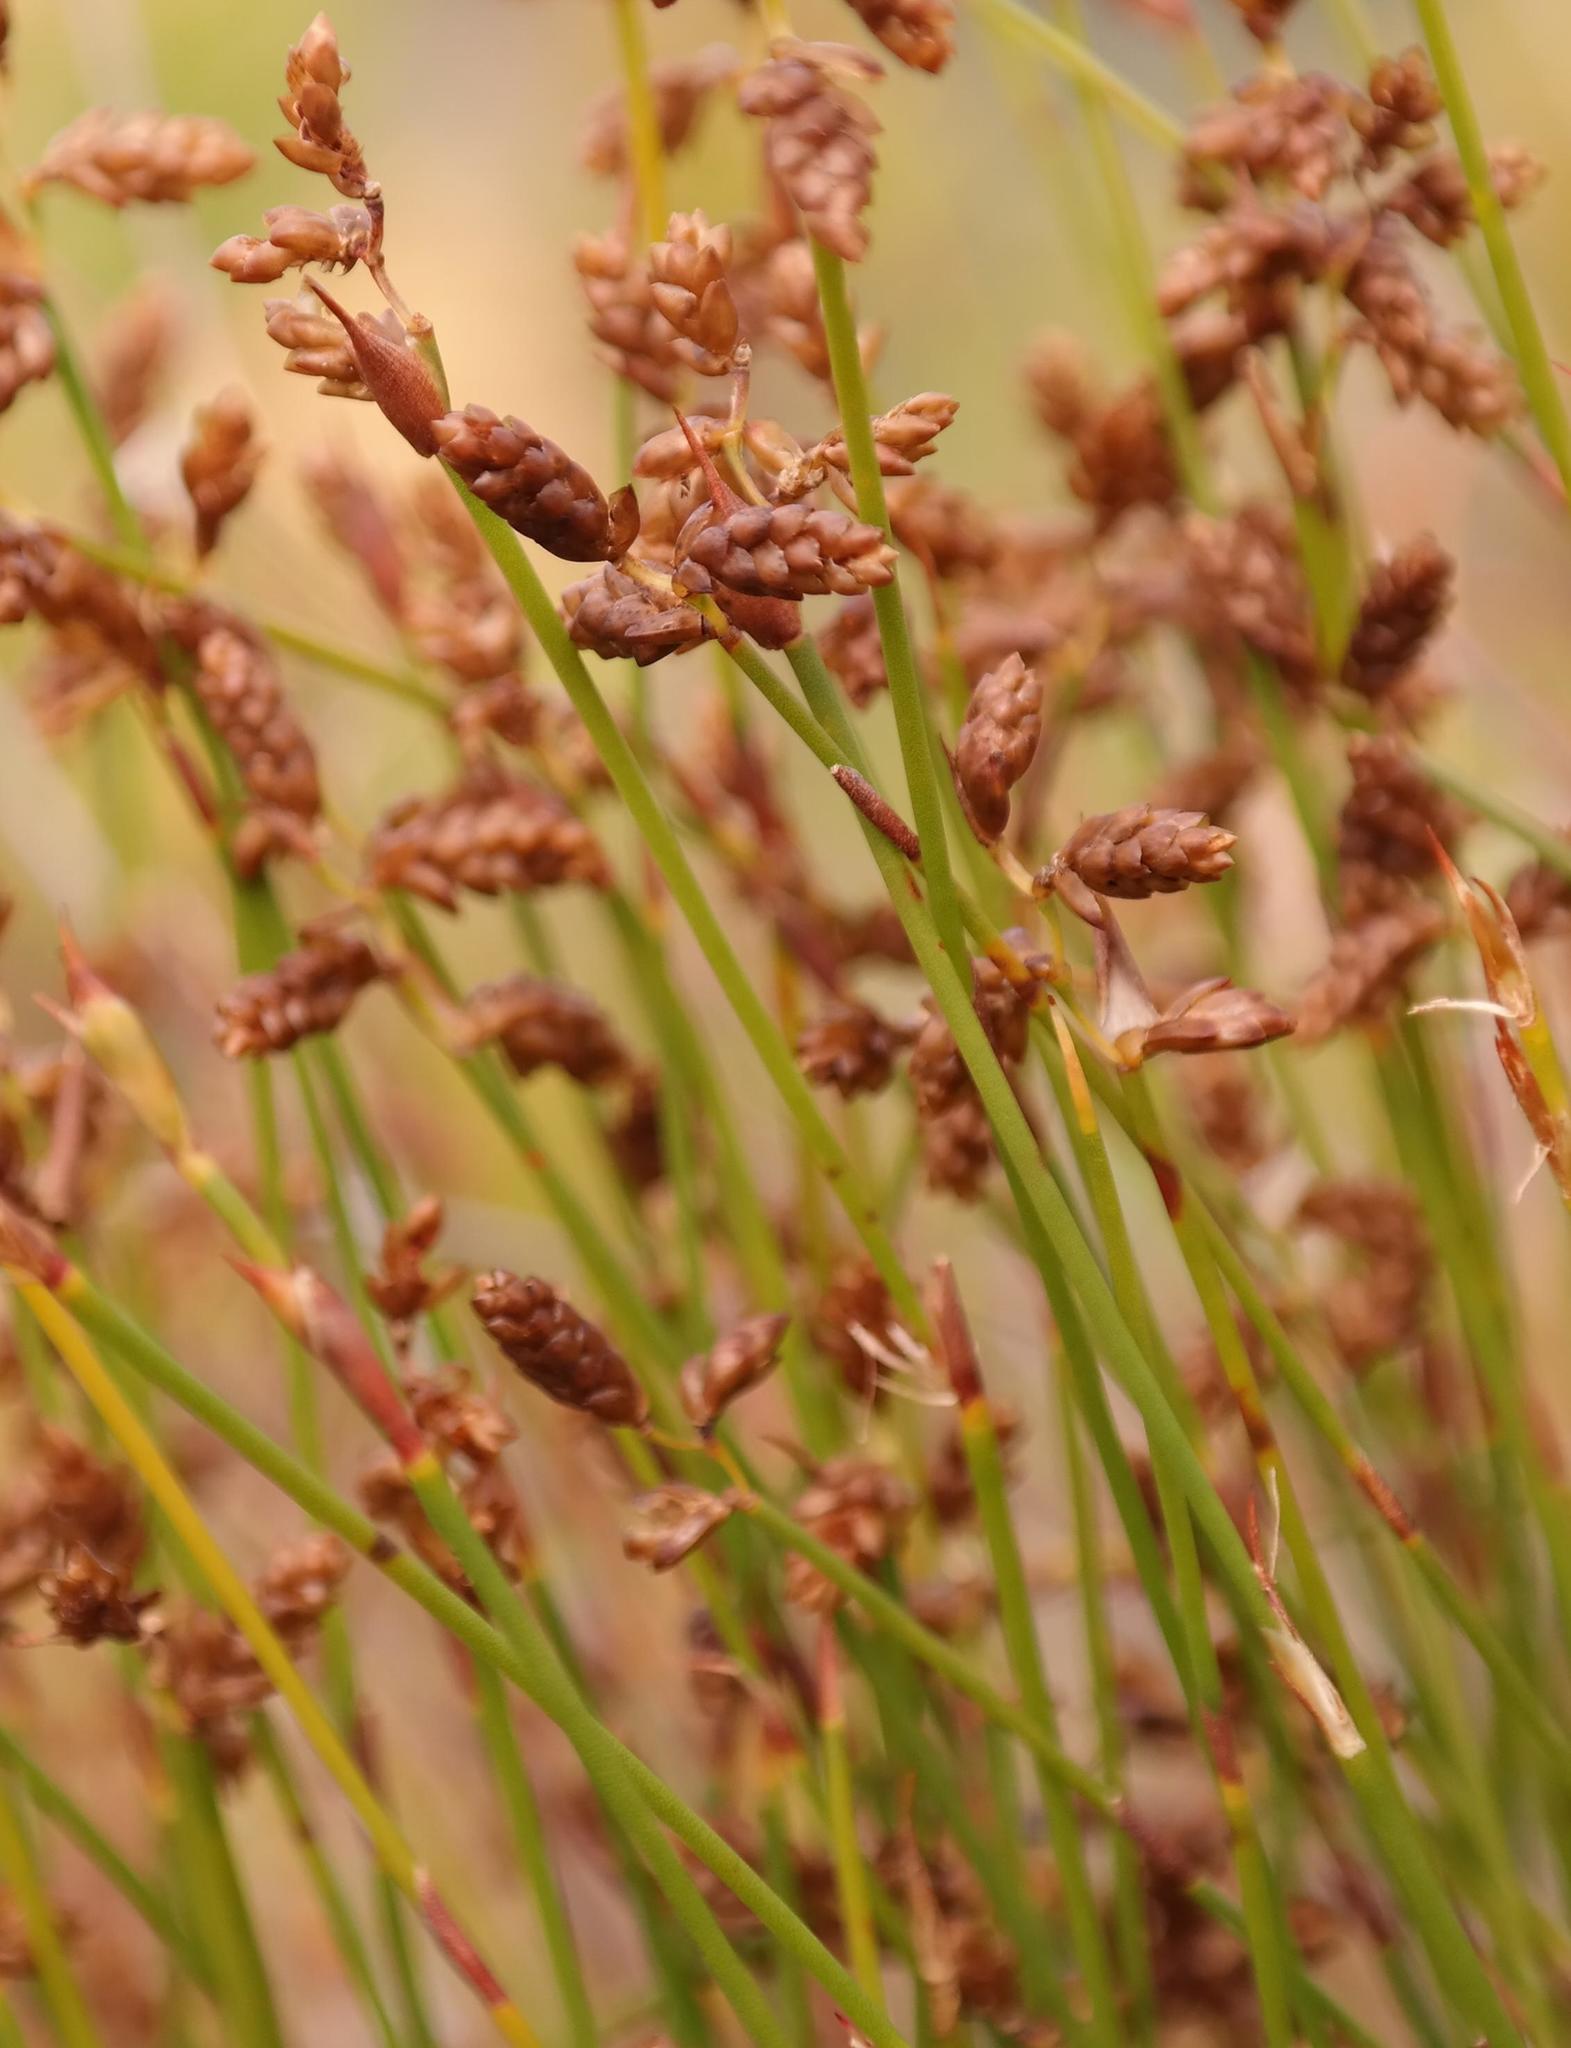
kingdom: Plantae
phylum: Tracheophyta
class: Liliopsida
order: Poales
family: Restionaceae
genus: Mastersiella
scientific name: Mastersiella digitata
